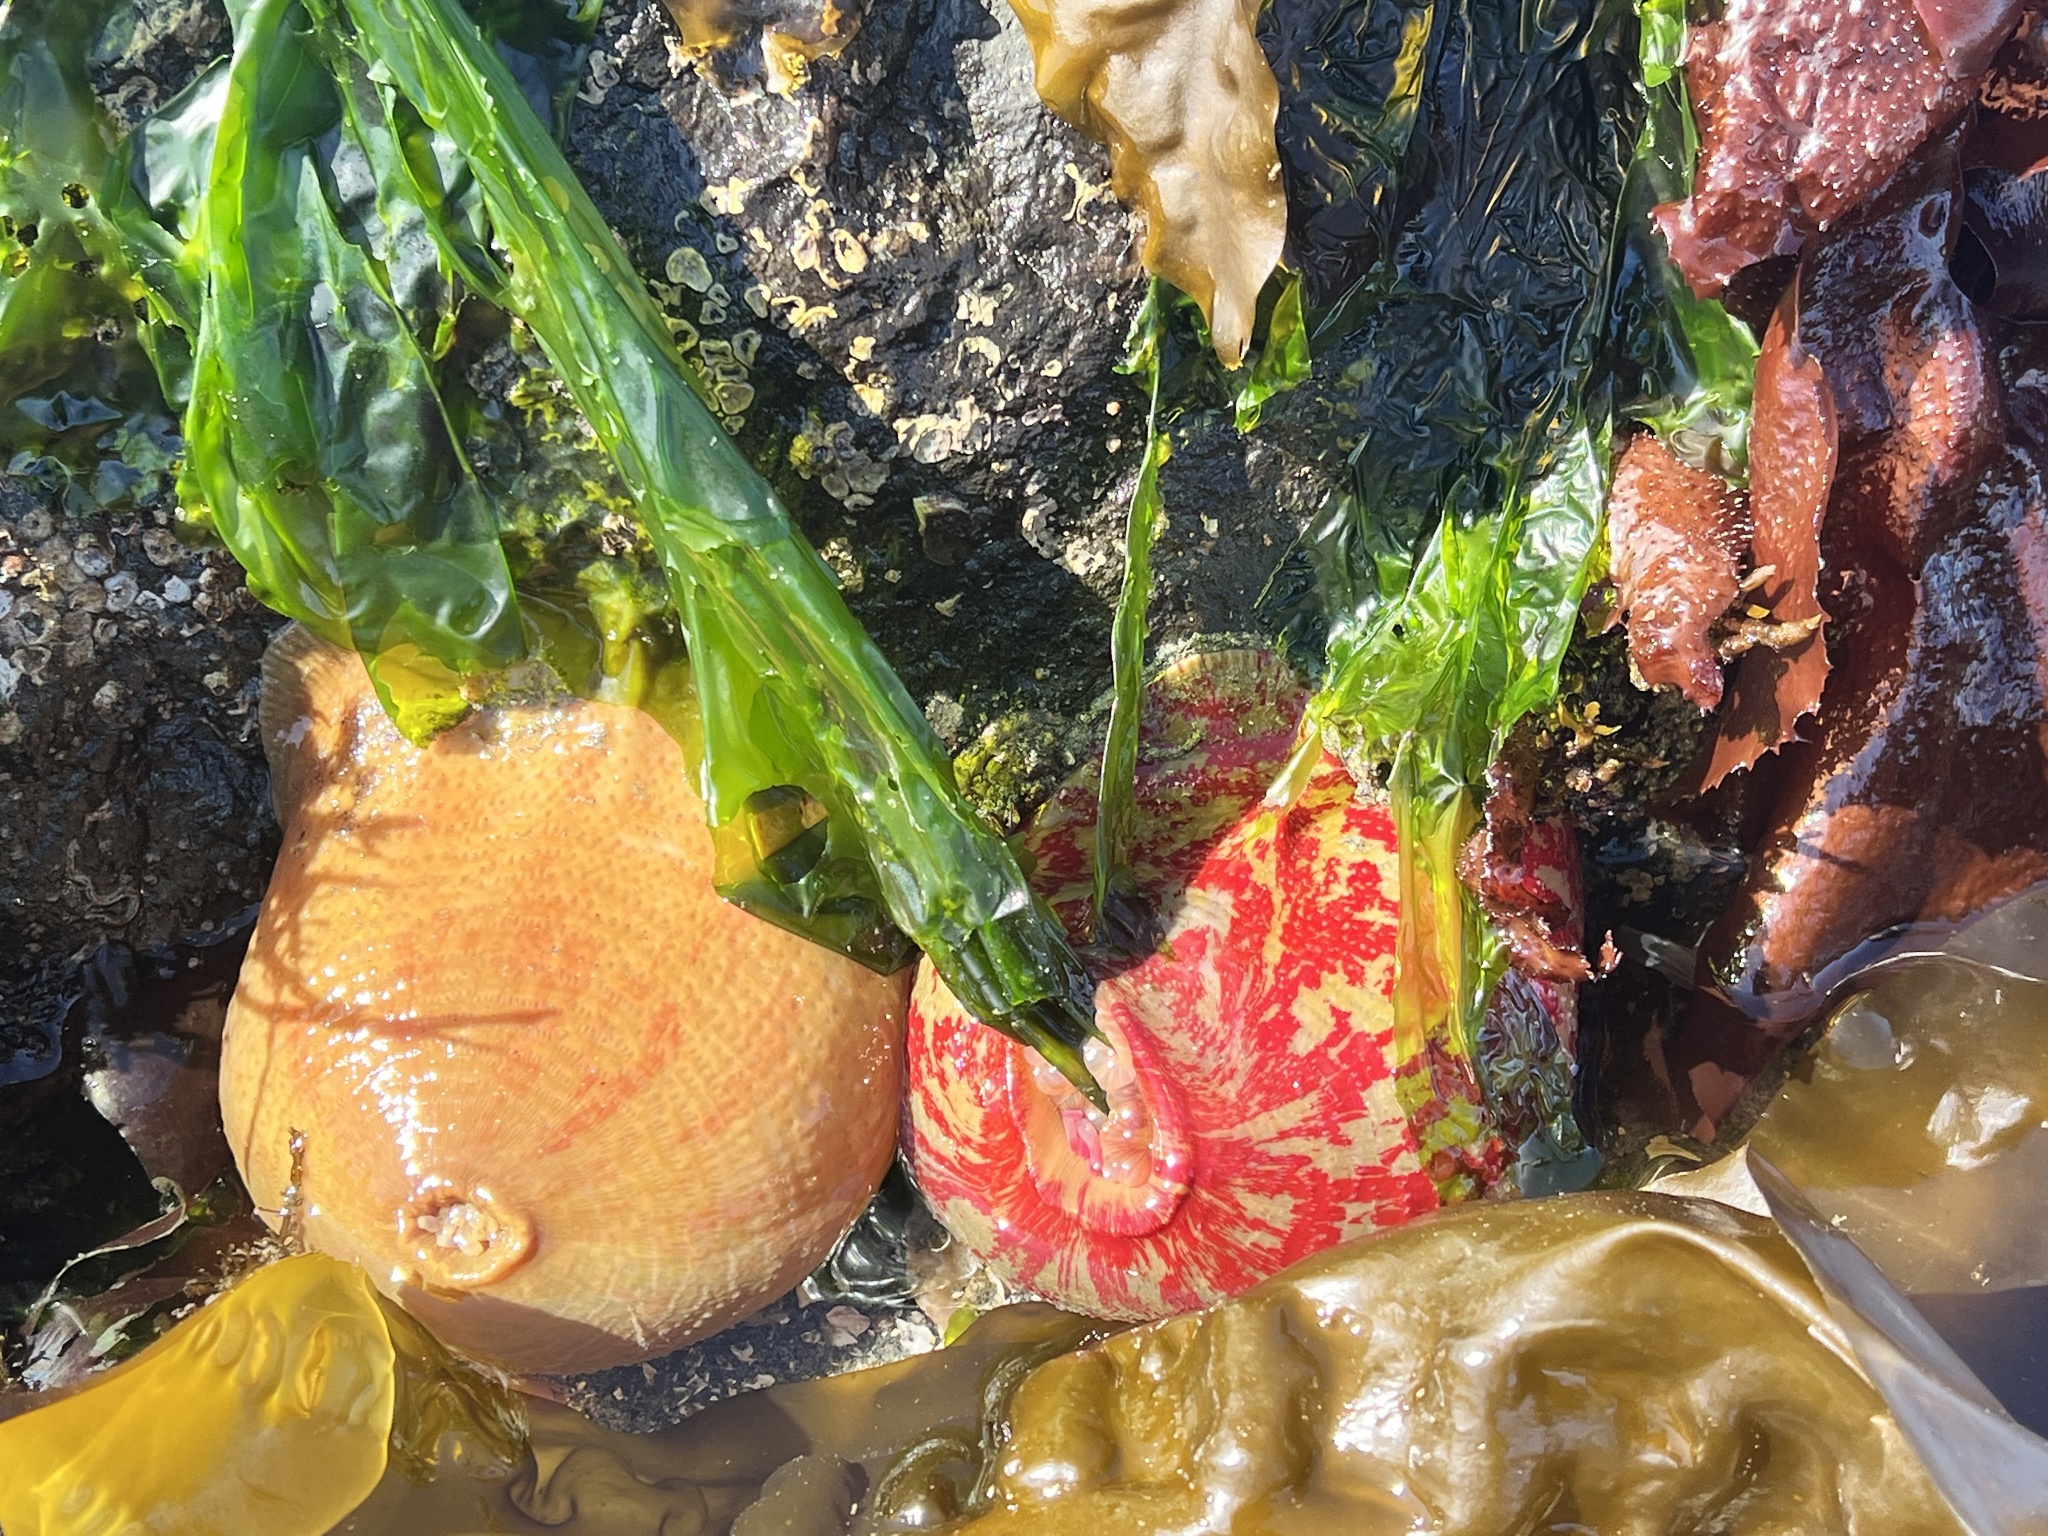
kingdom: Animalia
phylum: Cnidaria
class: Anthozoa
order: Actiniaria
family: Actiniidae
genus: Urticina
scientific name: Urticina grebelnyi
